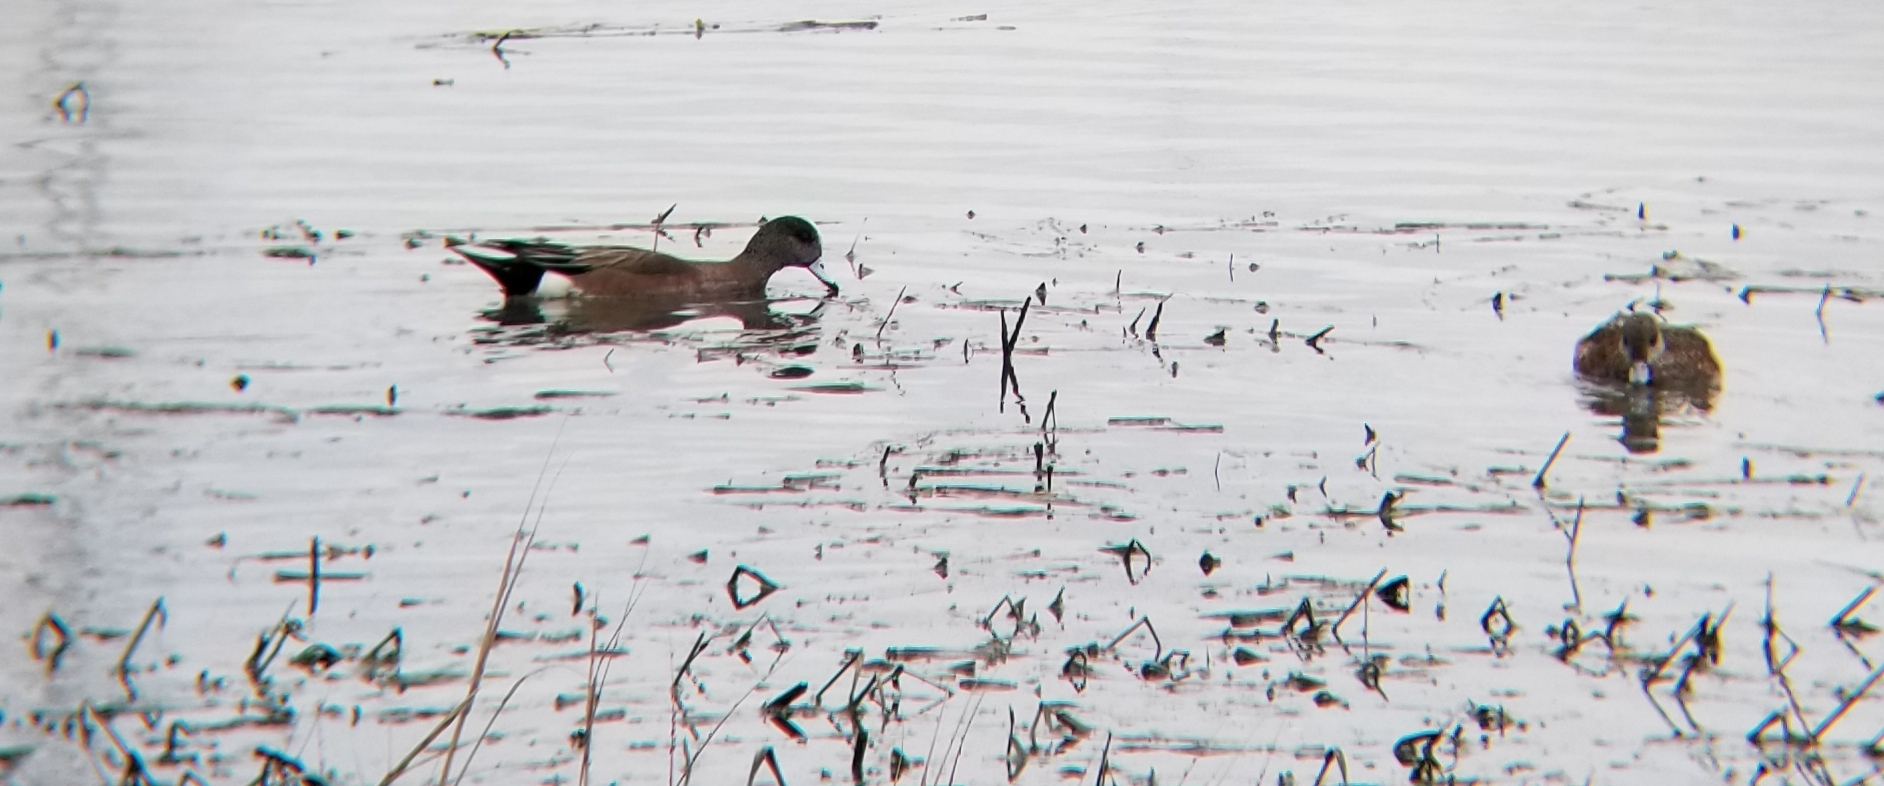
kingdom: Animalia
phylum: Chordata
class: Aves
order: Anseriformes
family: Anatidae
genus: Mareca
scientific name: Mareca americana
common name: American wigeon
